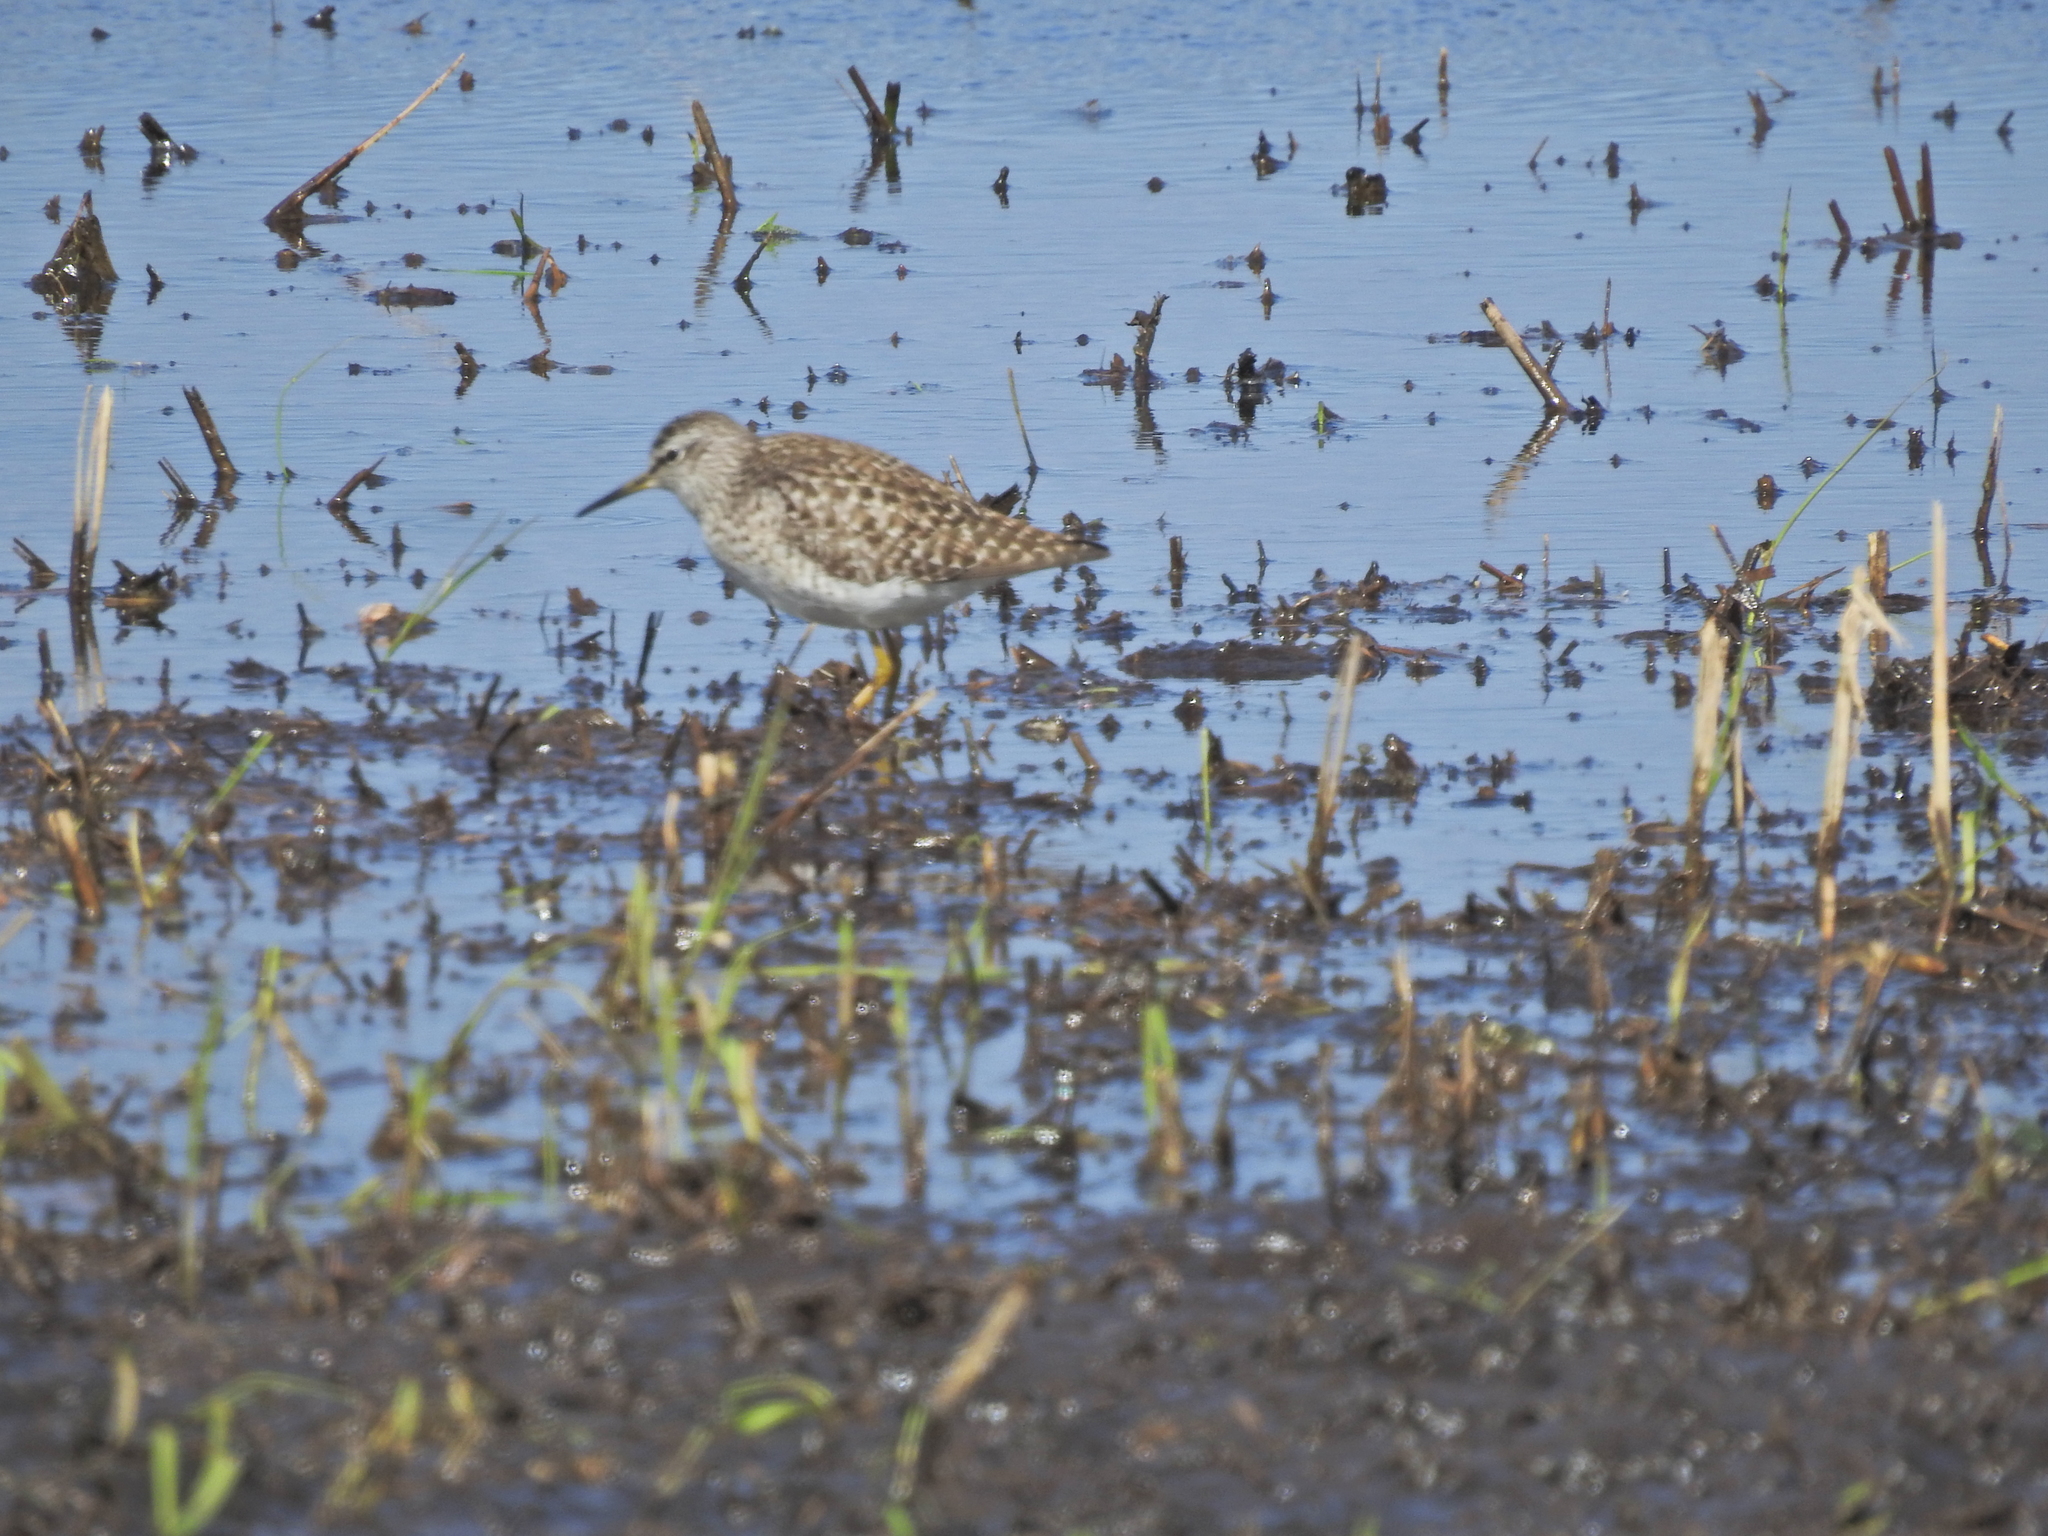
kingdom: Animalia
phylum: Chordata
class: Aves
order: Charadriiformes
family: Scolopacidae
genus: Tringa
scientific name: Tringa glareola
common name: Wood sandpiper
